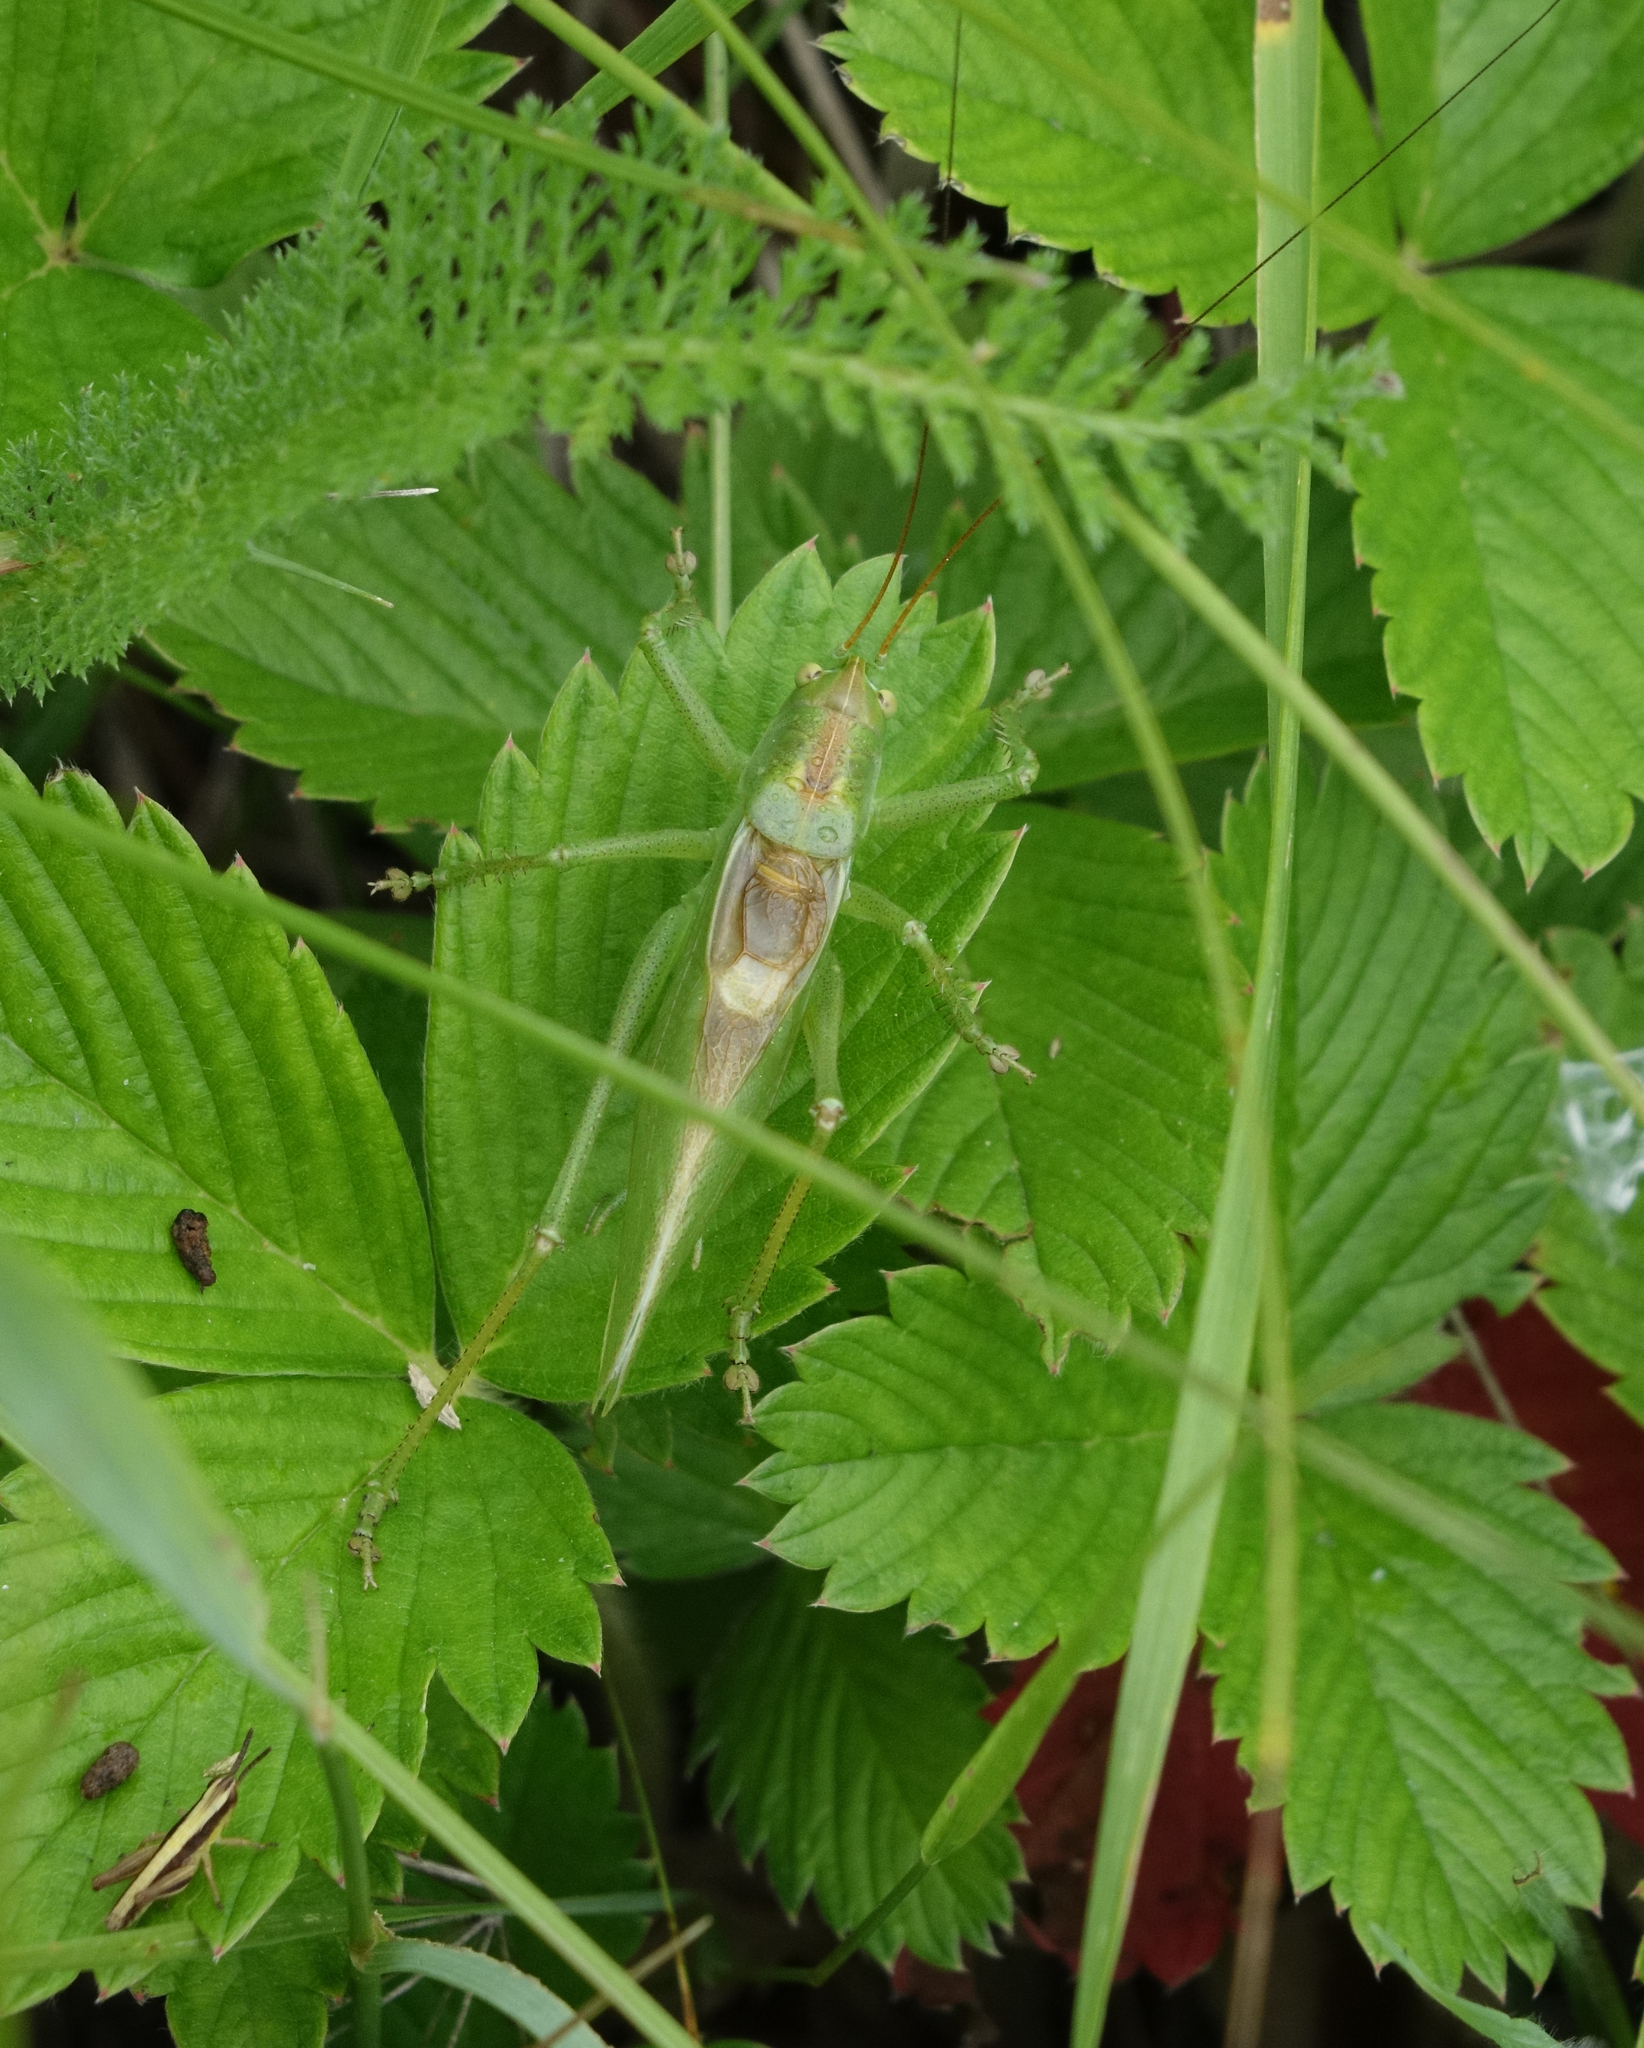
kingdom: Plantae
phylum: Tracheophyta
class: Magnoliopsida
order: Rosales
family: Rosaceae
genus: Fragaria
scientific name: Fragaria viridis
